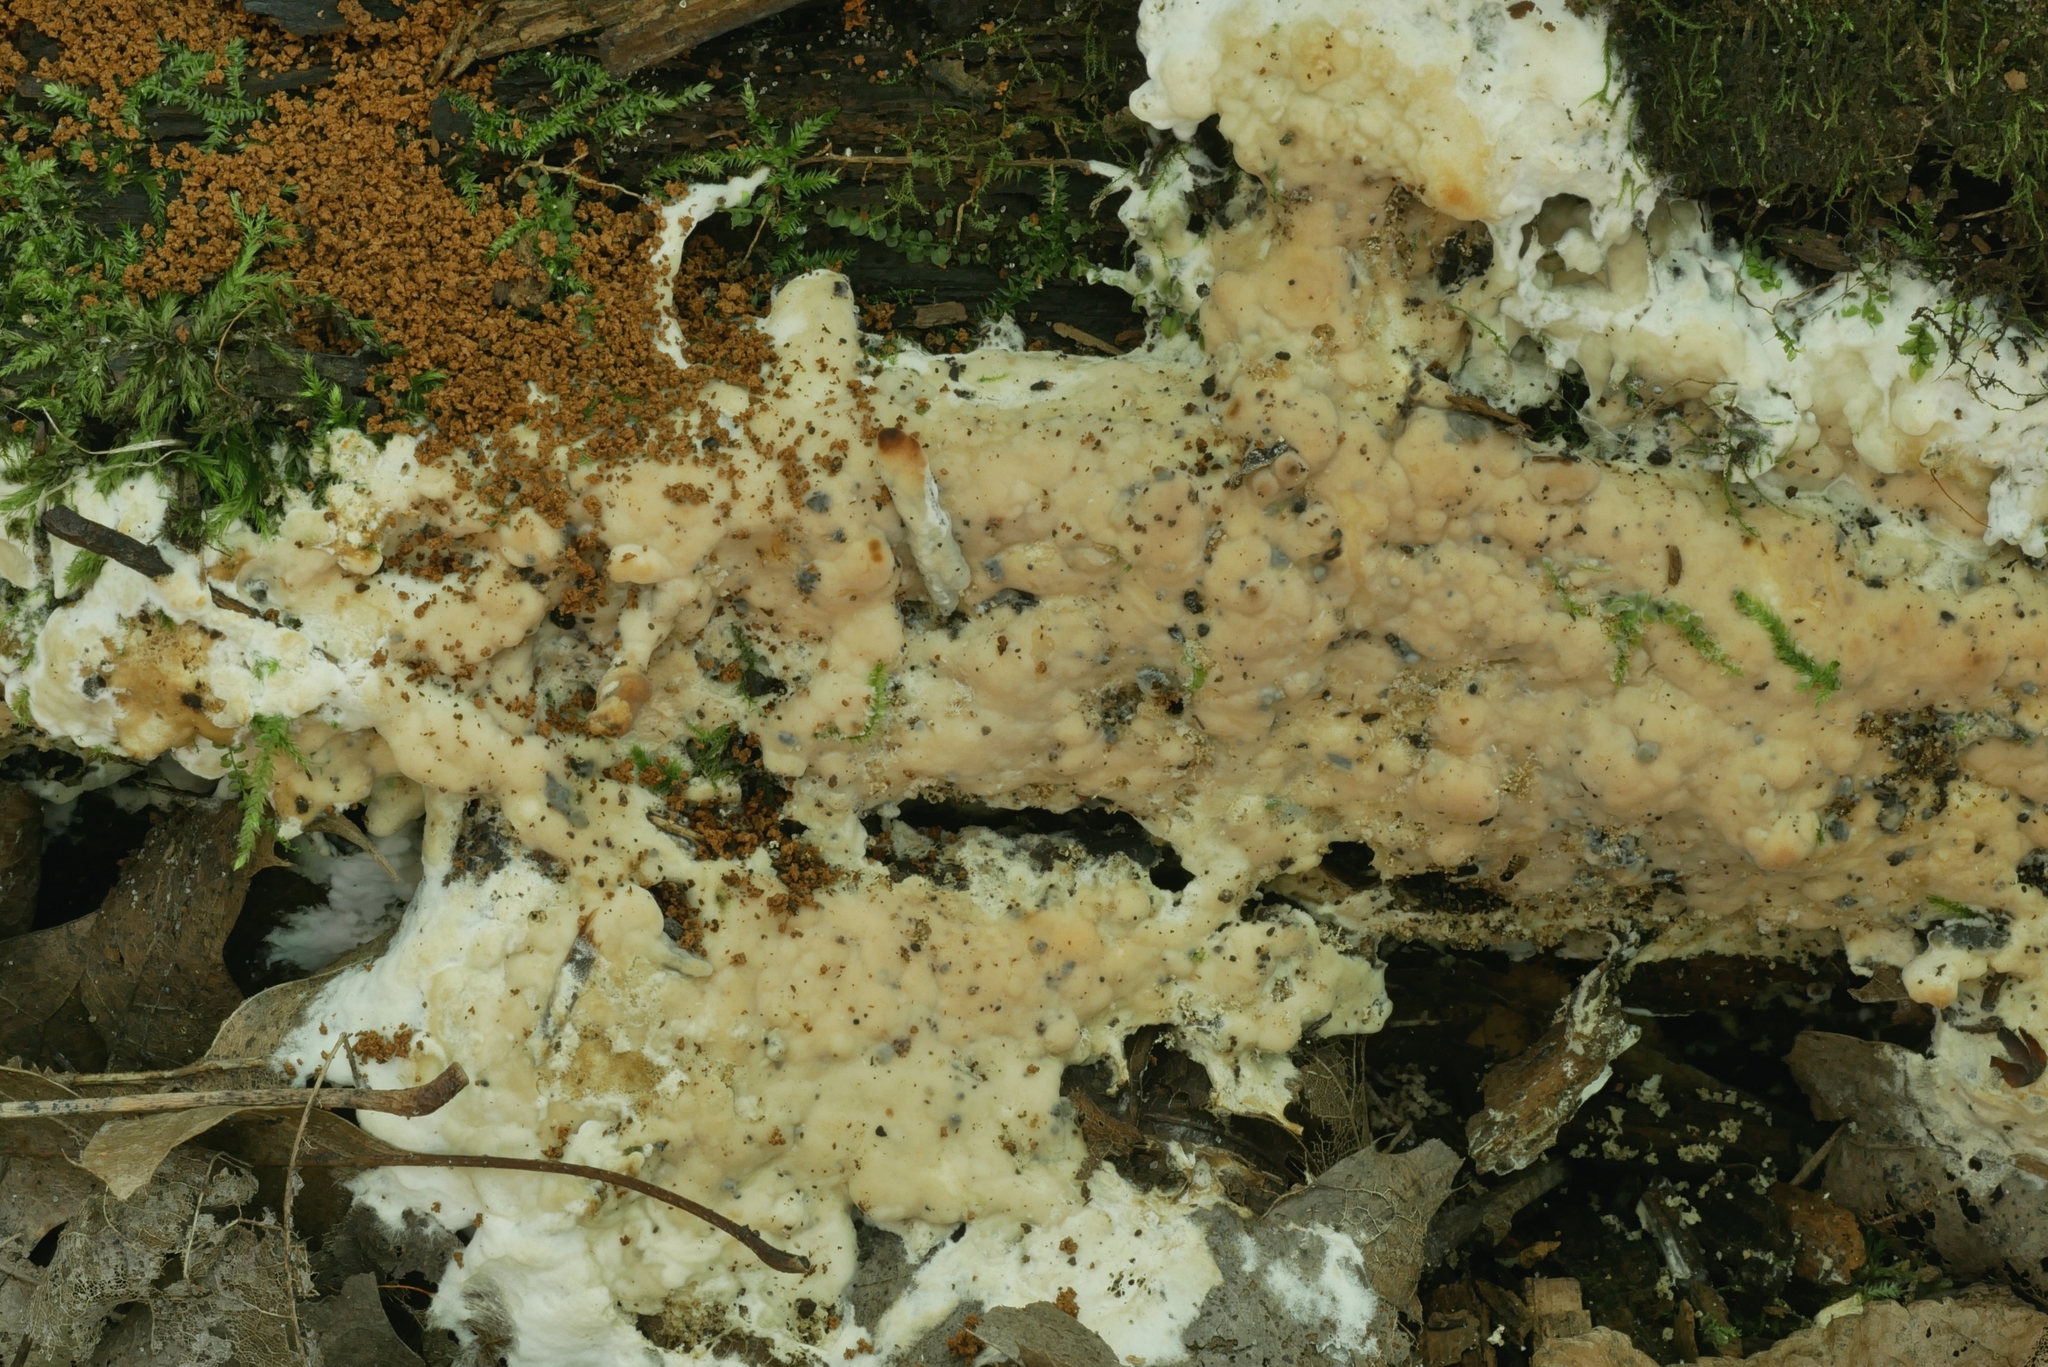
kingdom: Fungi
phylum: Basidiomycota
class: Agaricomycetes
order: Sebacinales
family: Sebacinaceae
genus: Sebacina
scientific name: Sebacina incrustans
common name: Enveloping crust
